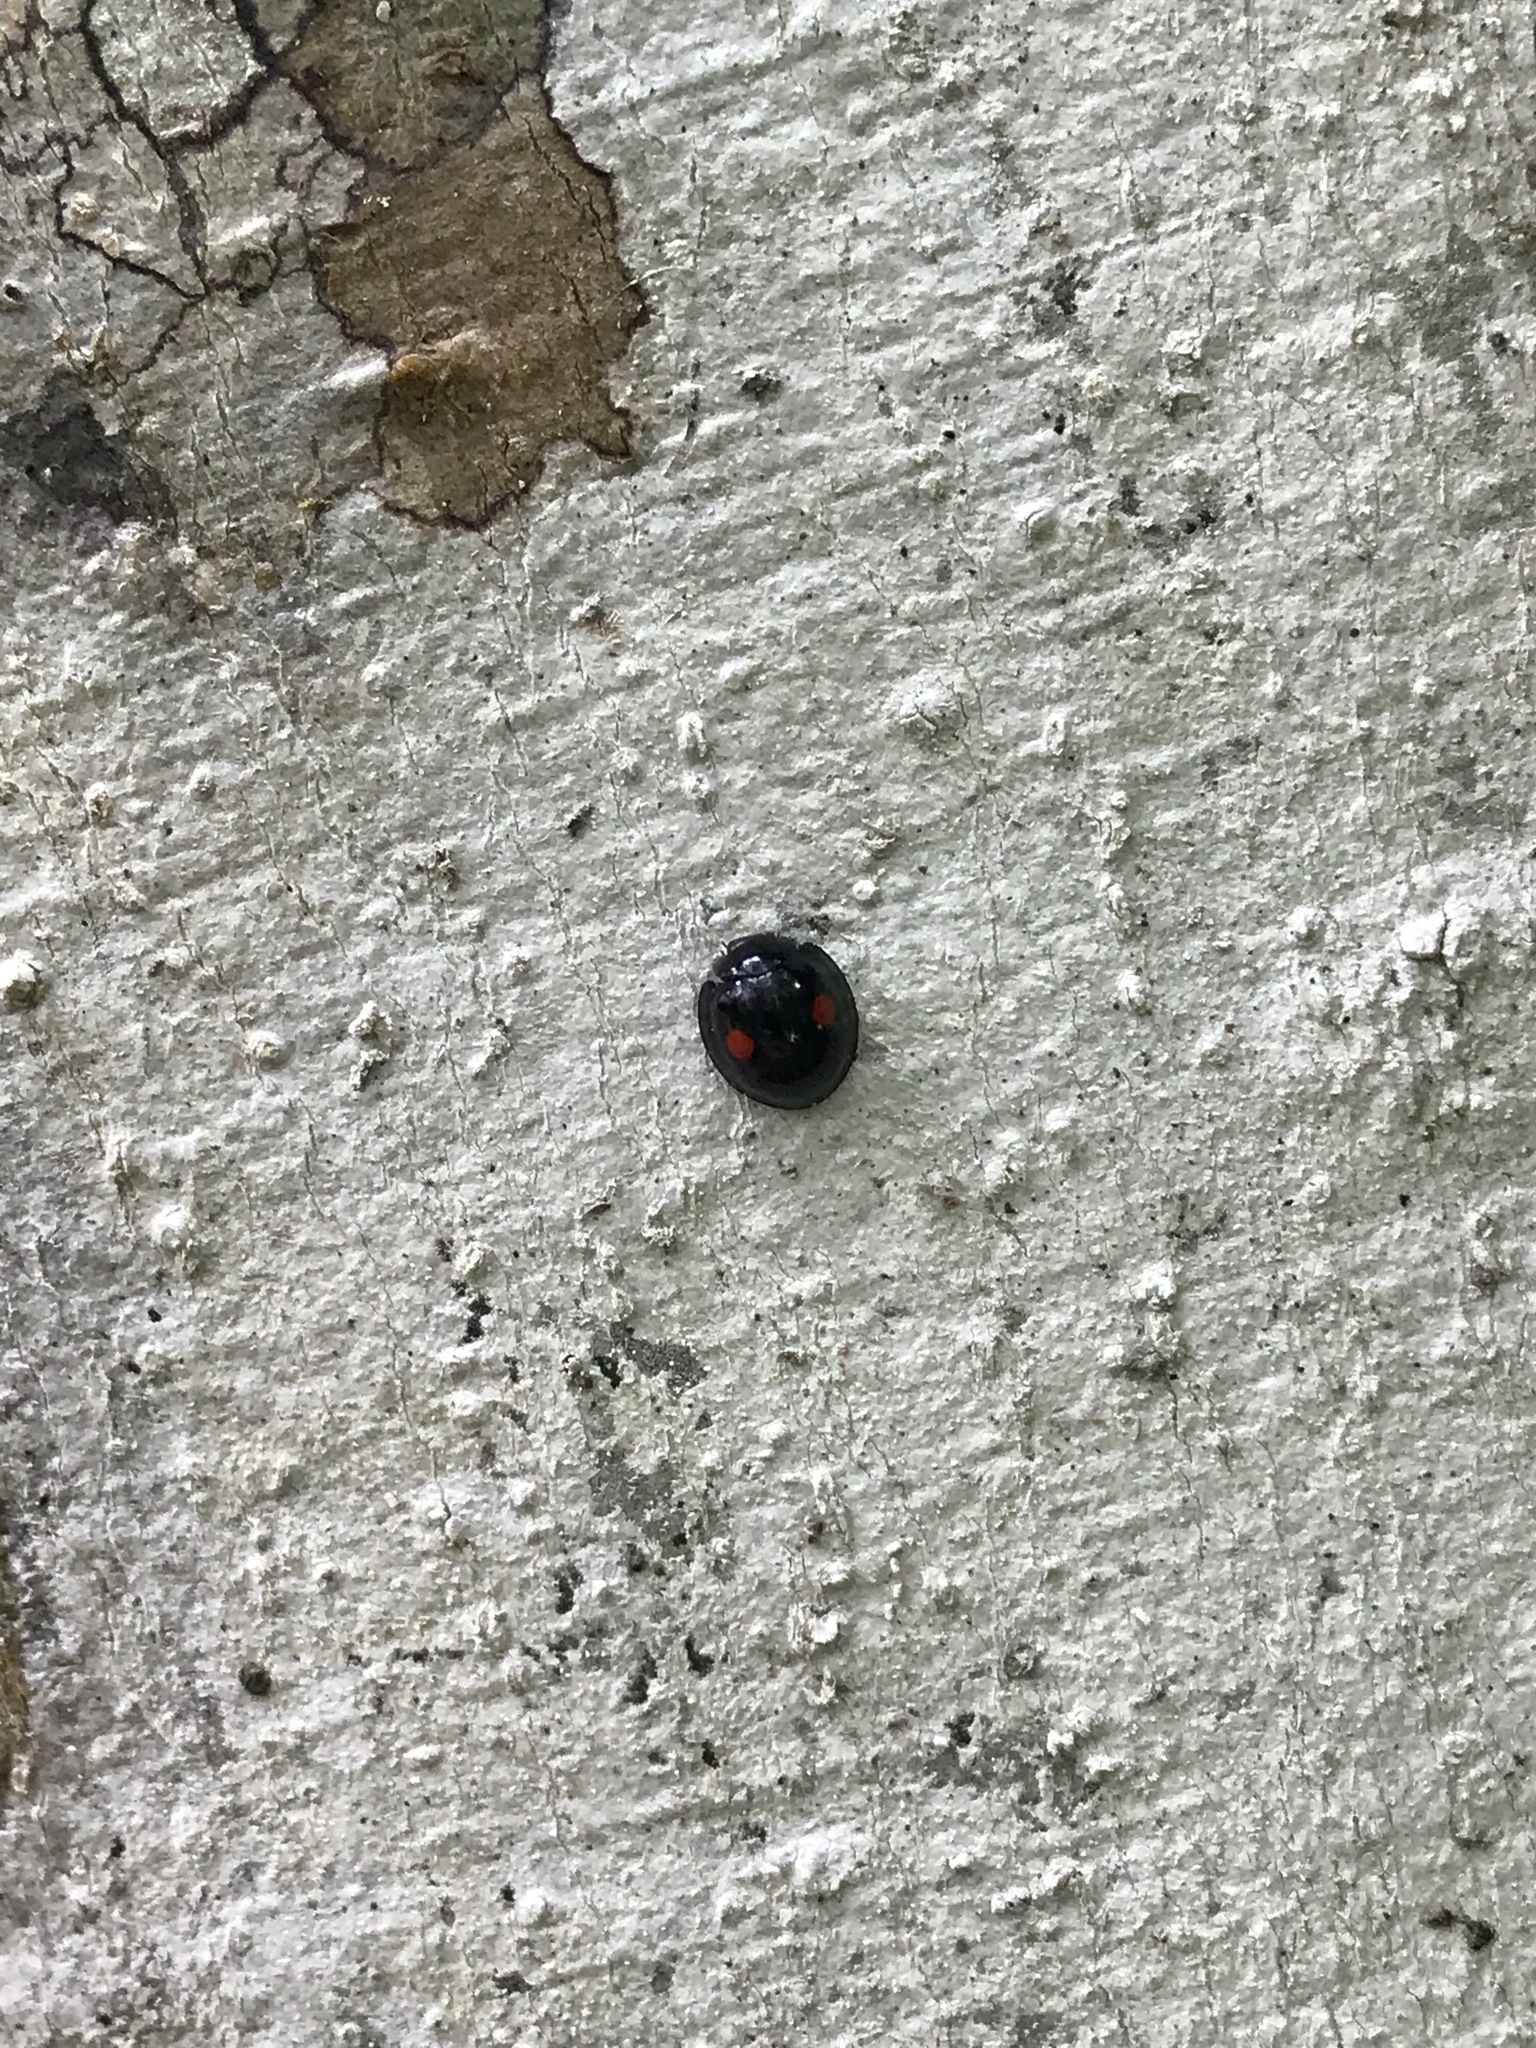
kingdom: Animalia
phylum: Arthropoda
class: Insecta
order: Coleoptera
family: Coccinellidae
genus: Chilocorus
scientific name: Chilocorus stigma
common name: Twicestabbed lady beetle
